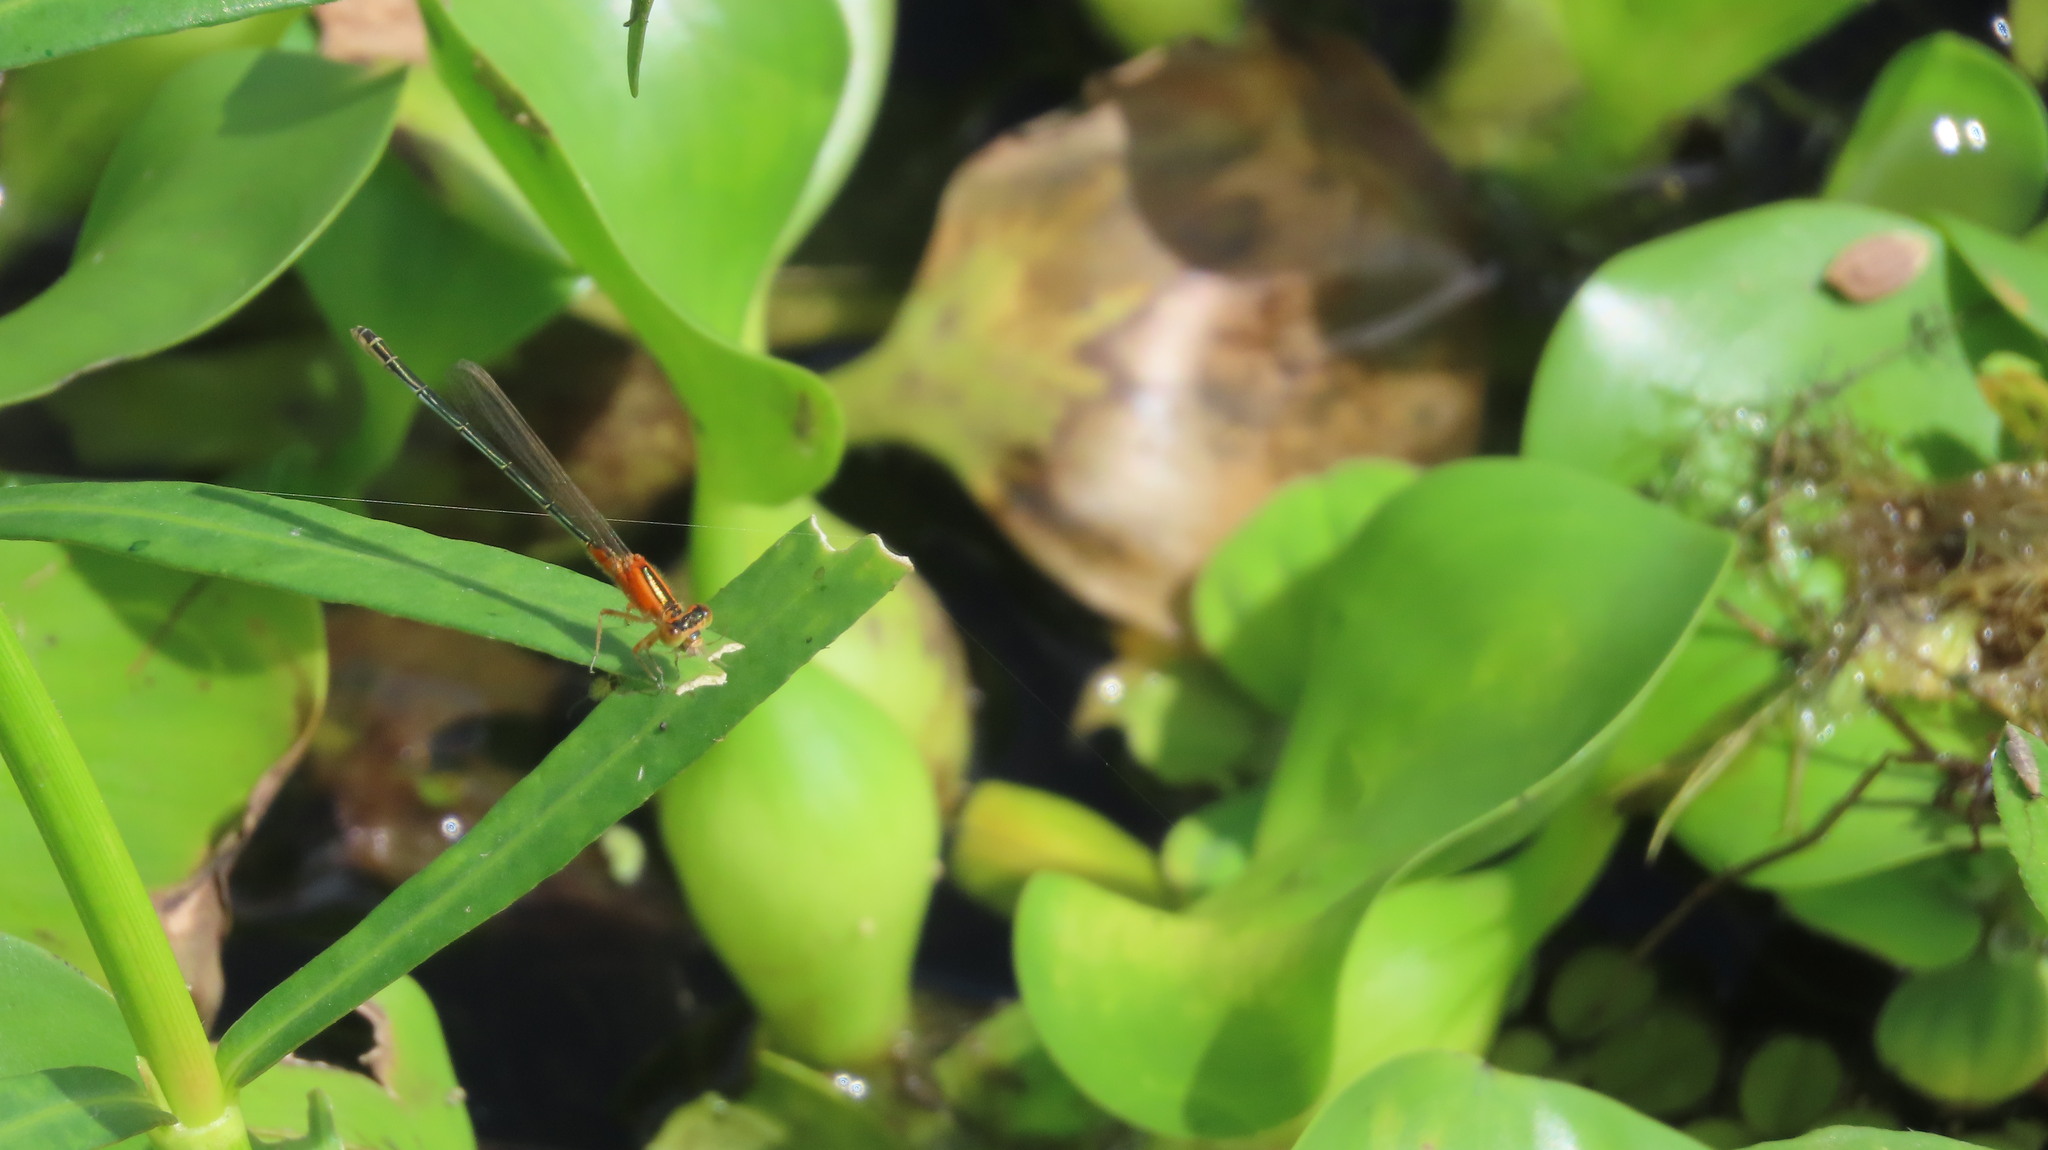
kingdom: Animalia
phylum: Arthropoda
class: Insecta
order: Odonata
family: Coenagrionidae
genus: Ischnura
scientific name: Ischnura senegalensis
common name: Tropical bluetail
